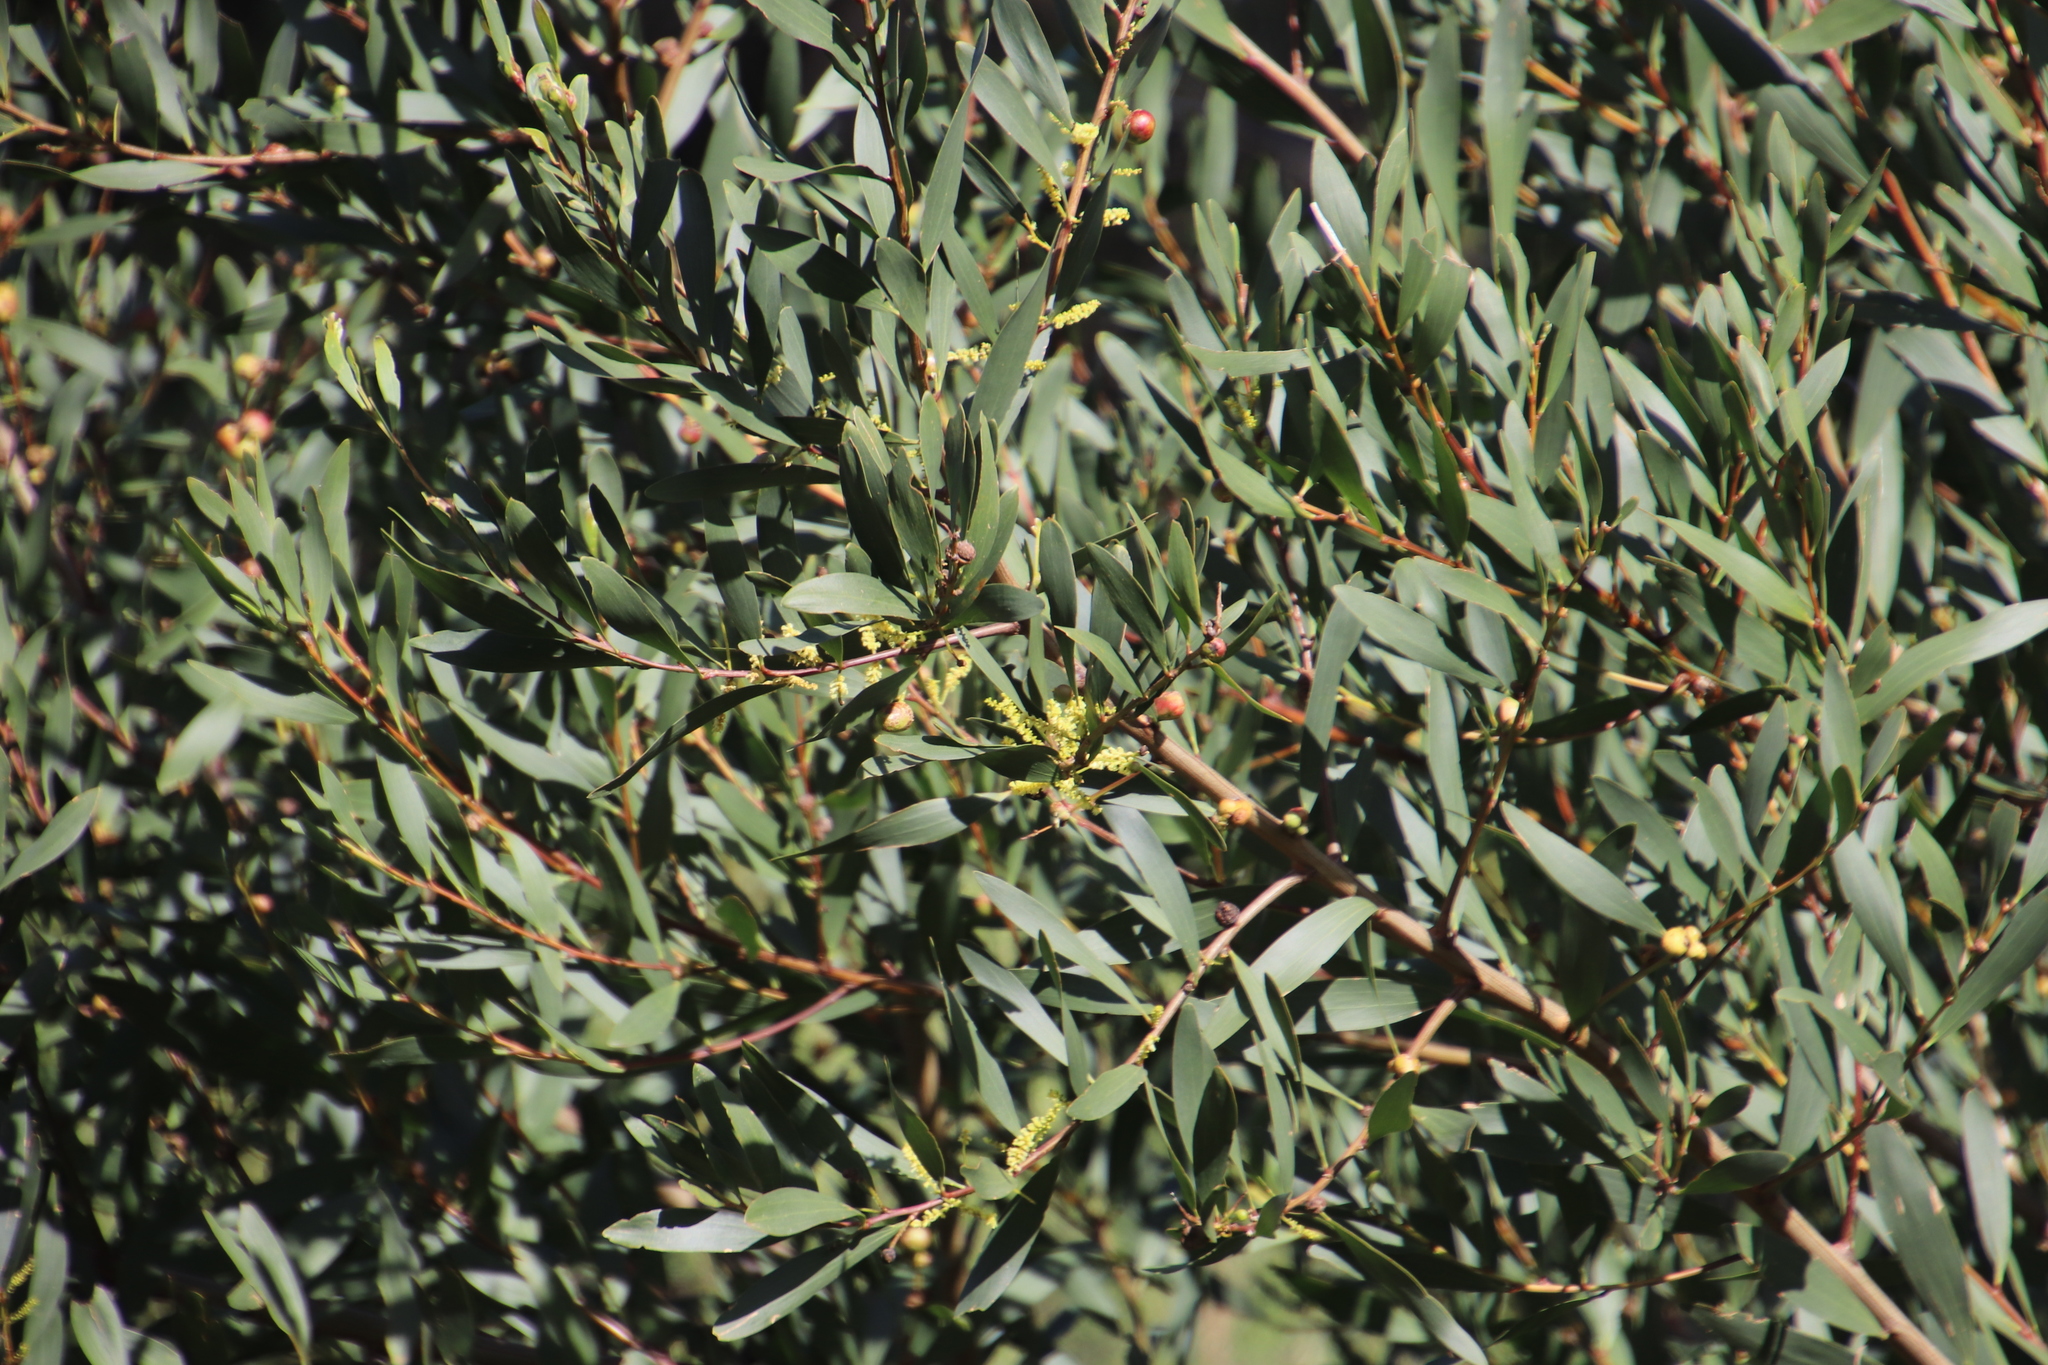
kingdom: Plantae
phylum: Tracheophyta
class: Magnoliopsida
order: Fabales
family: Fabaceae
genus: Acacia
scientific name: Acacia longifolia
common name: Sydney golden wattle
